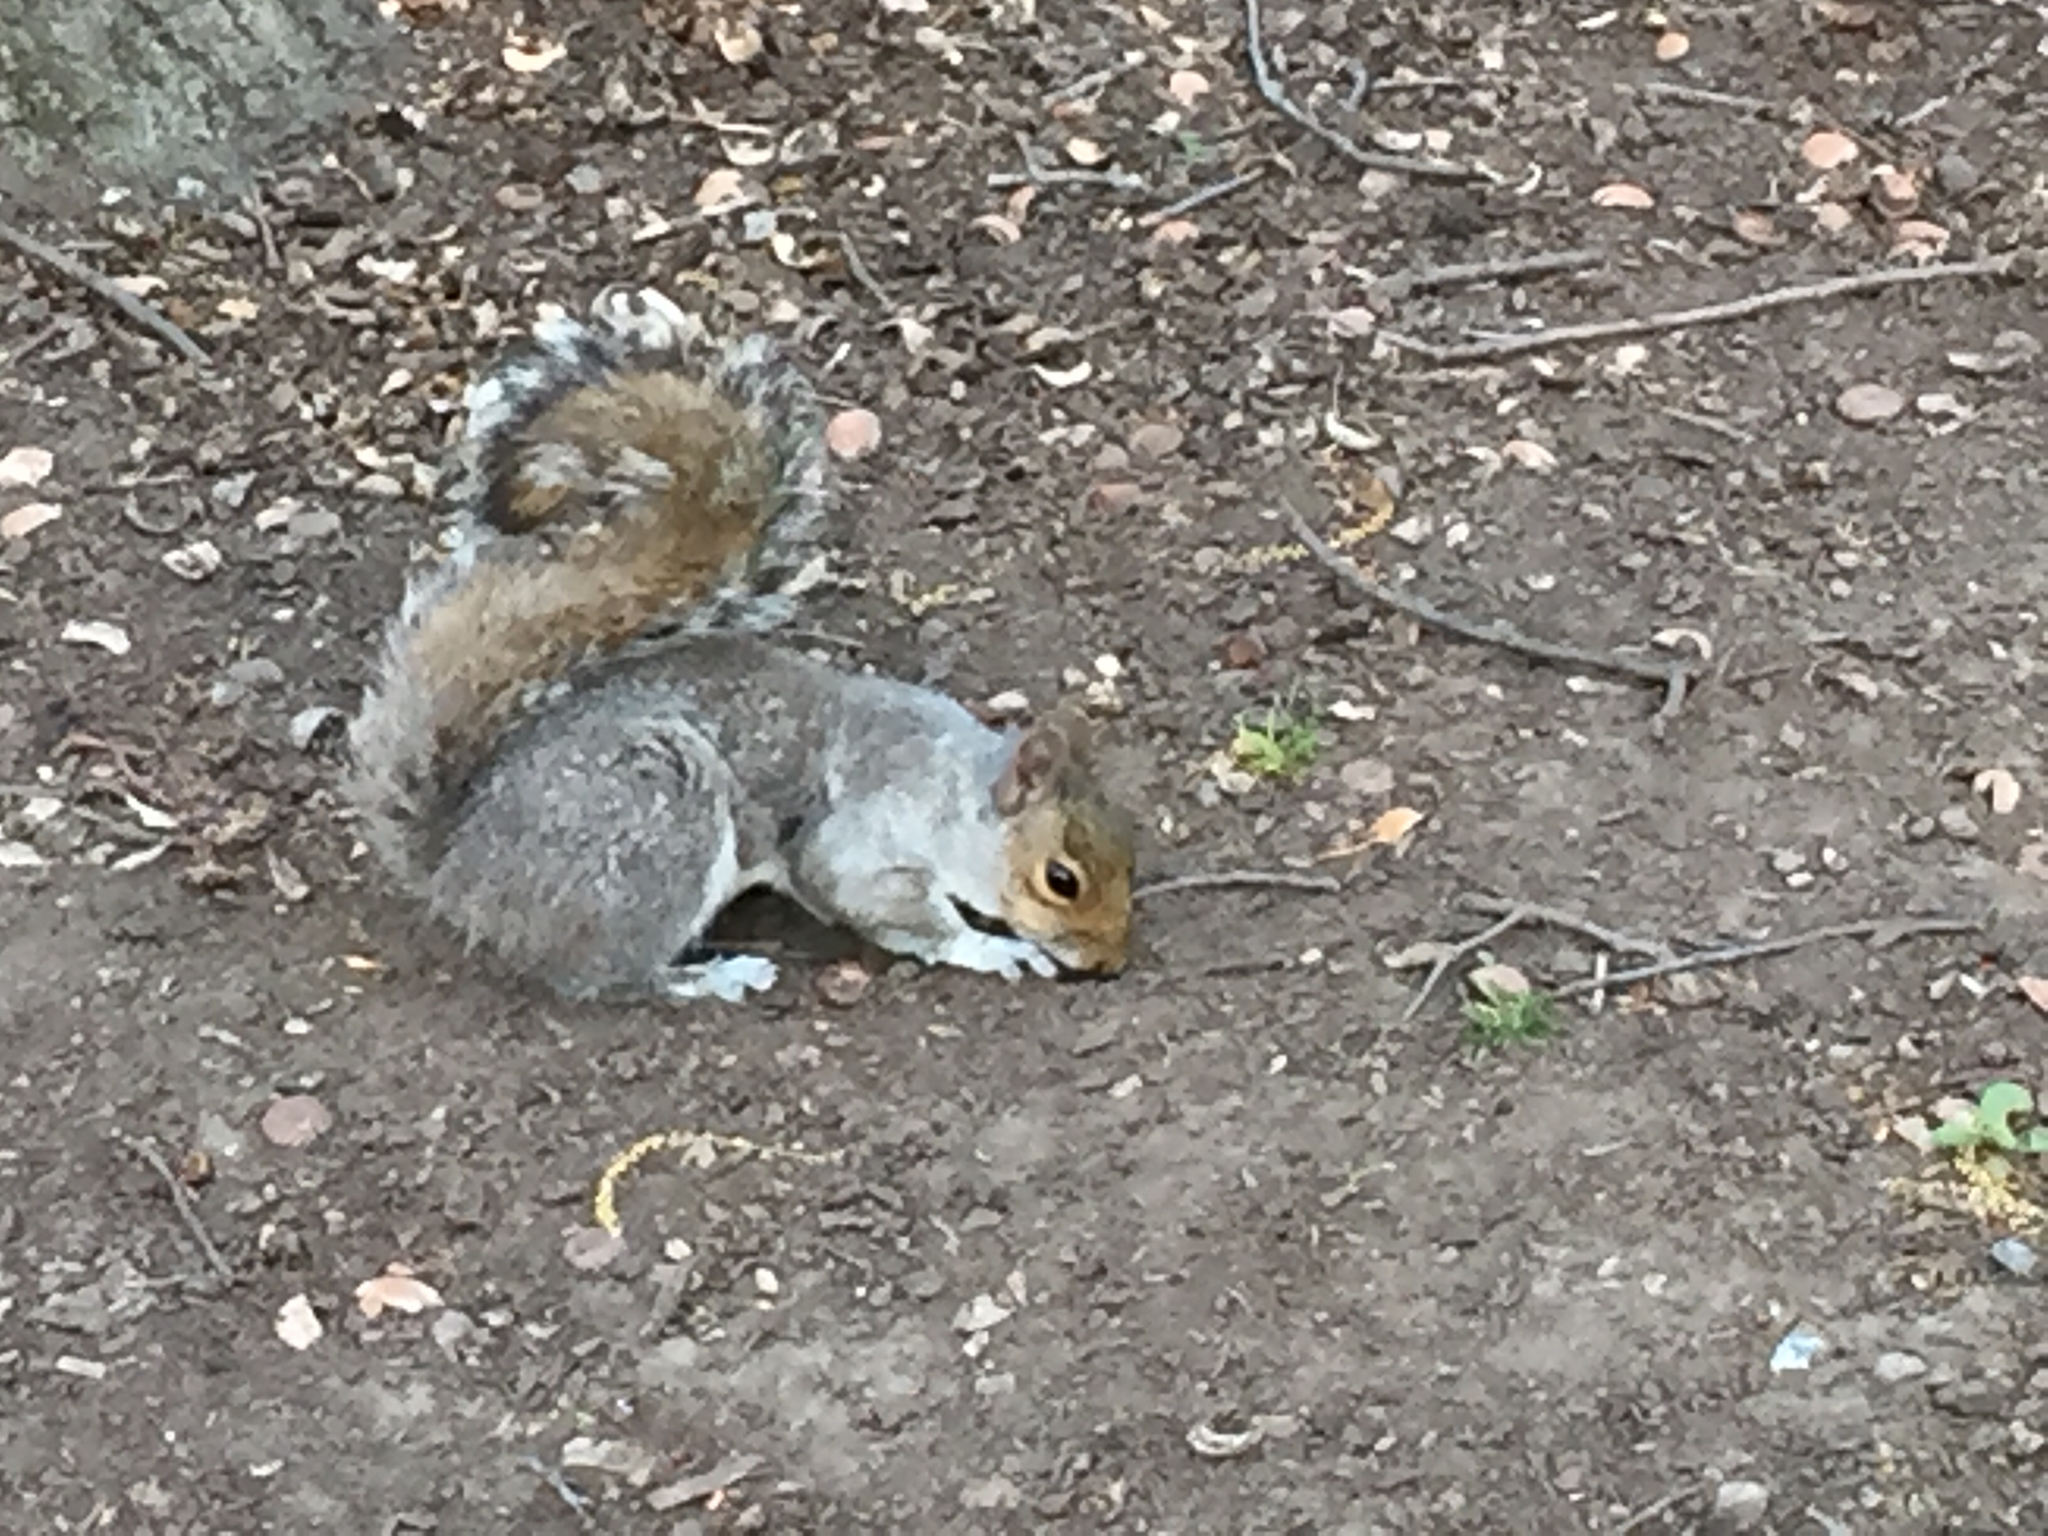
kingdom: Animalia
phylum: Chordata
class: Mammalia
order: Rodentia
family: Sciuridae
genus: Sciurus
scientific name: Sciurus carolinensis
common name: Eastern gray squirrel
